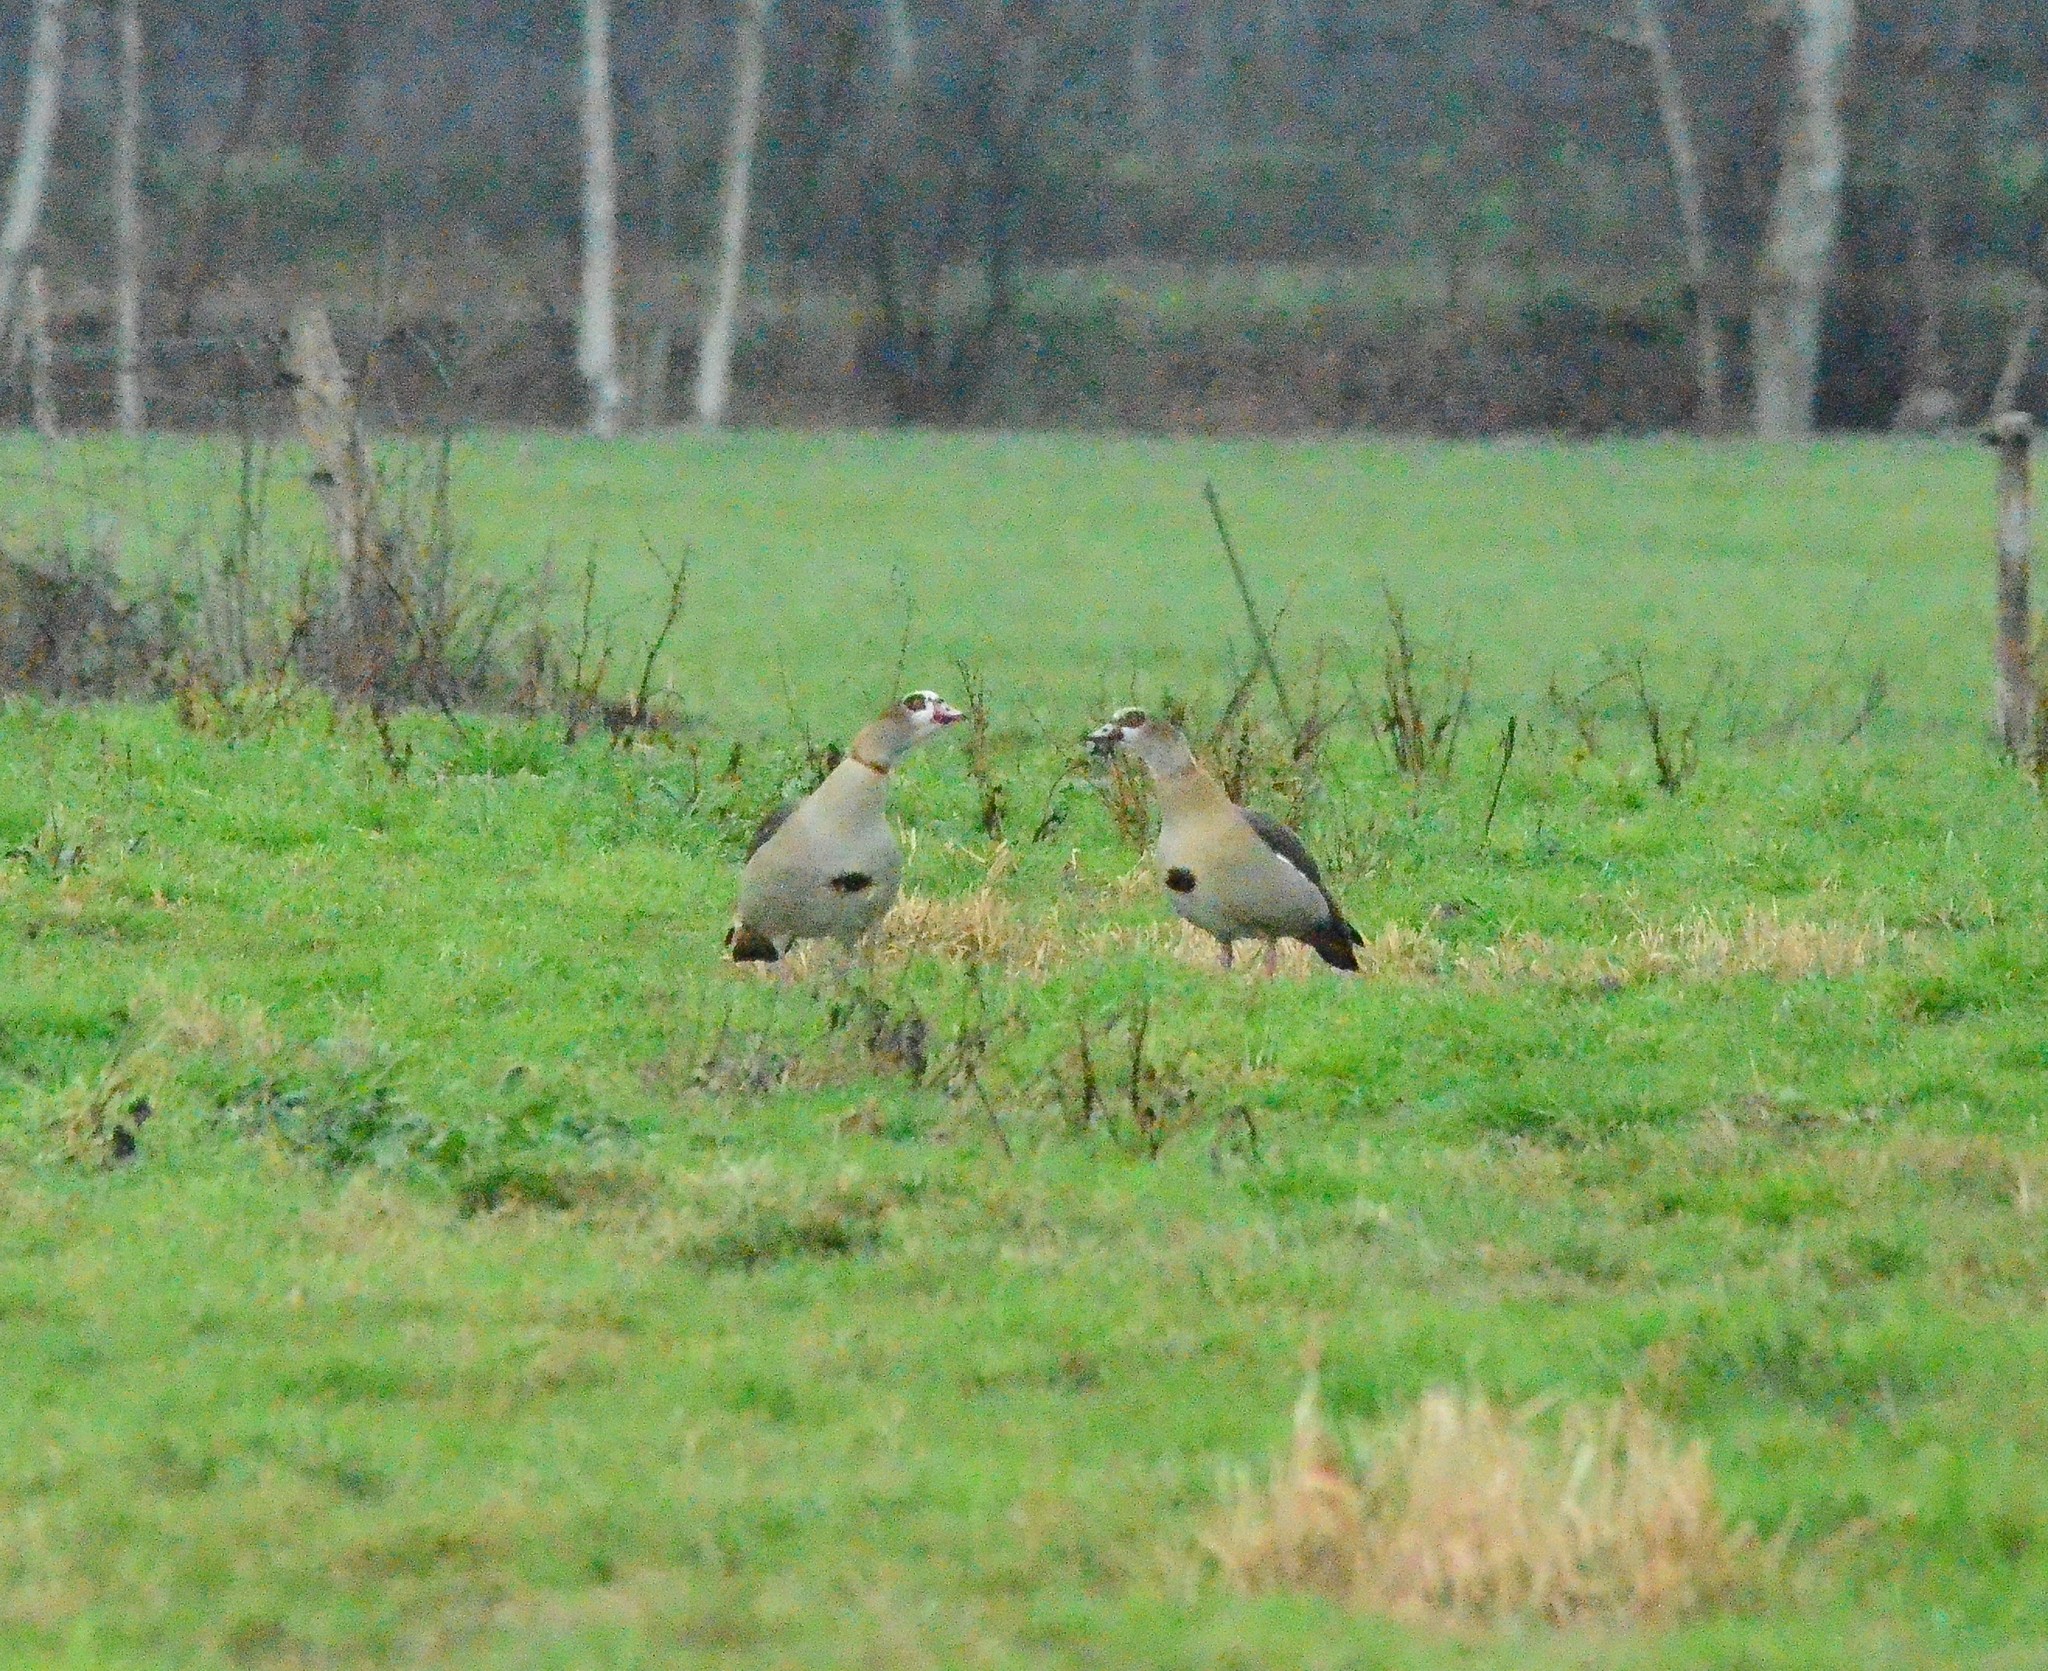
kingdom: Animalia
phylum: Chordata
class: Aves
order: Anseriformes
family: Anatidae
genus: Alopochen
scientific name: Alopochen aegyptiaca
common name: Egyptian goose
